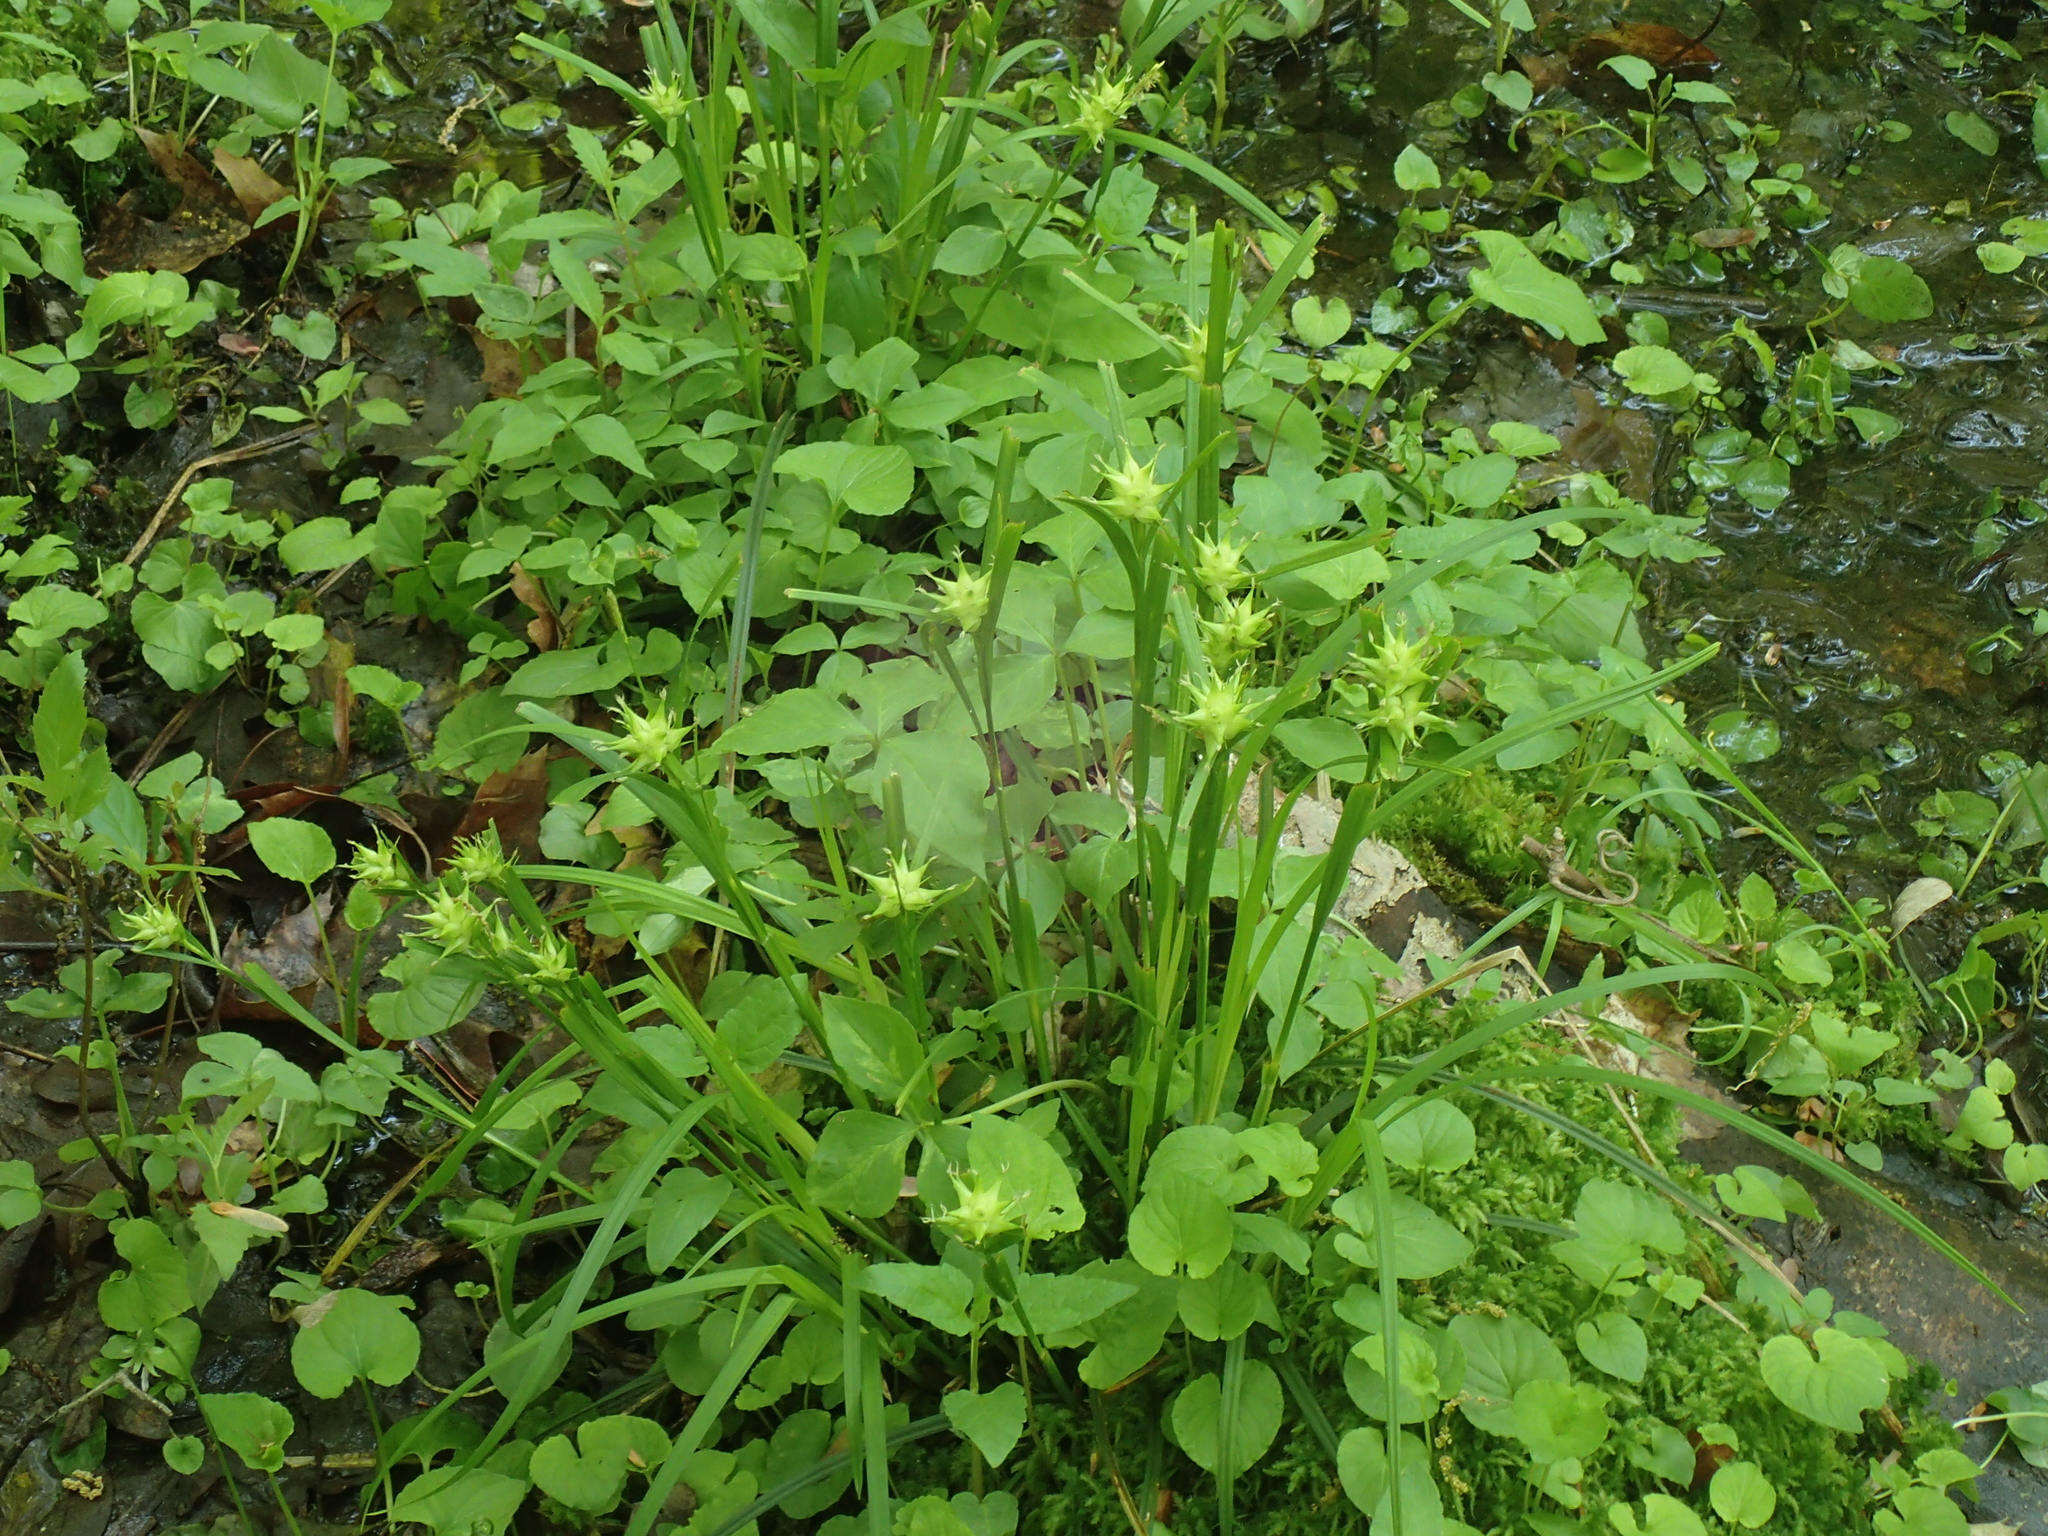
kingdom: Plantae
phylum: Tracheophyta
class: Liliopsida
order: Poales
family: Cyperaceae
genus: Carex
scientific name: Carex intumescens
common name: Greater bladder sedge
